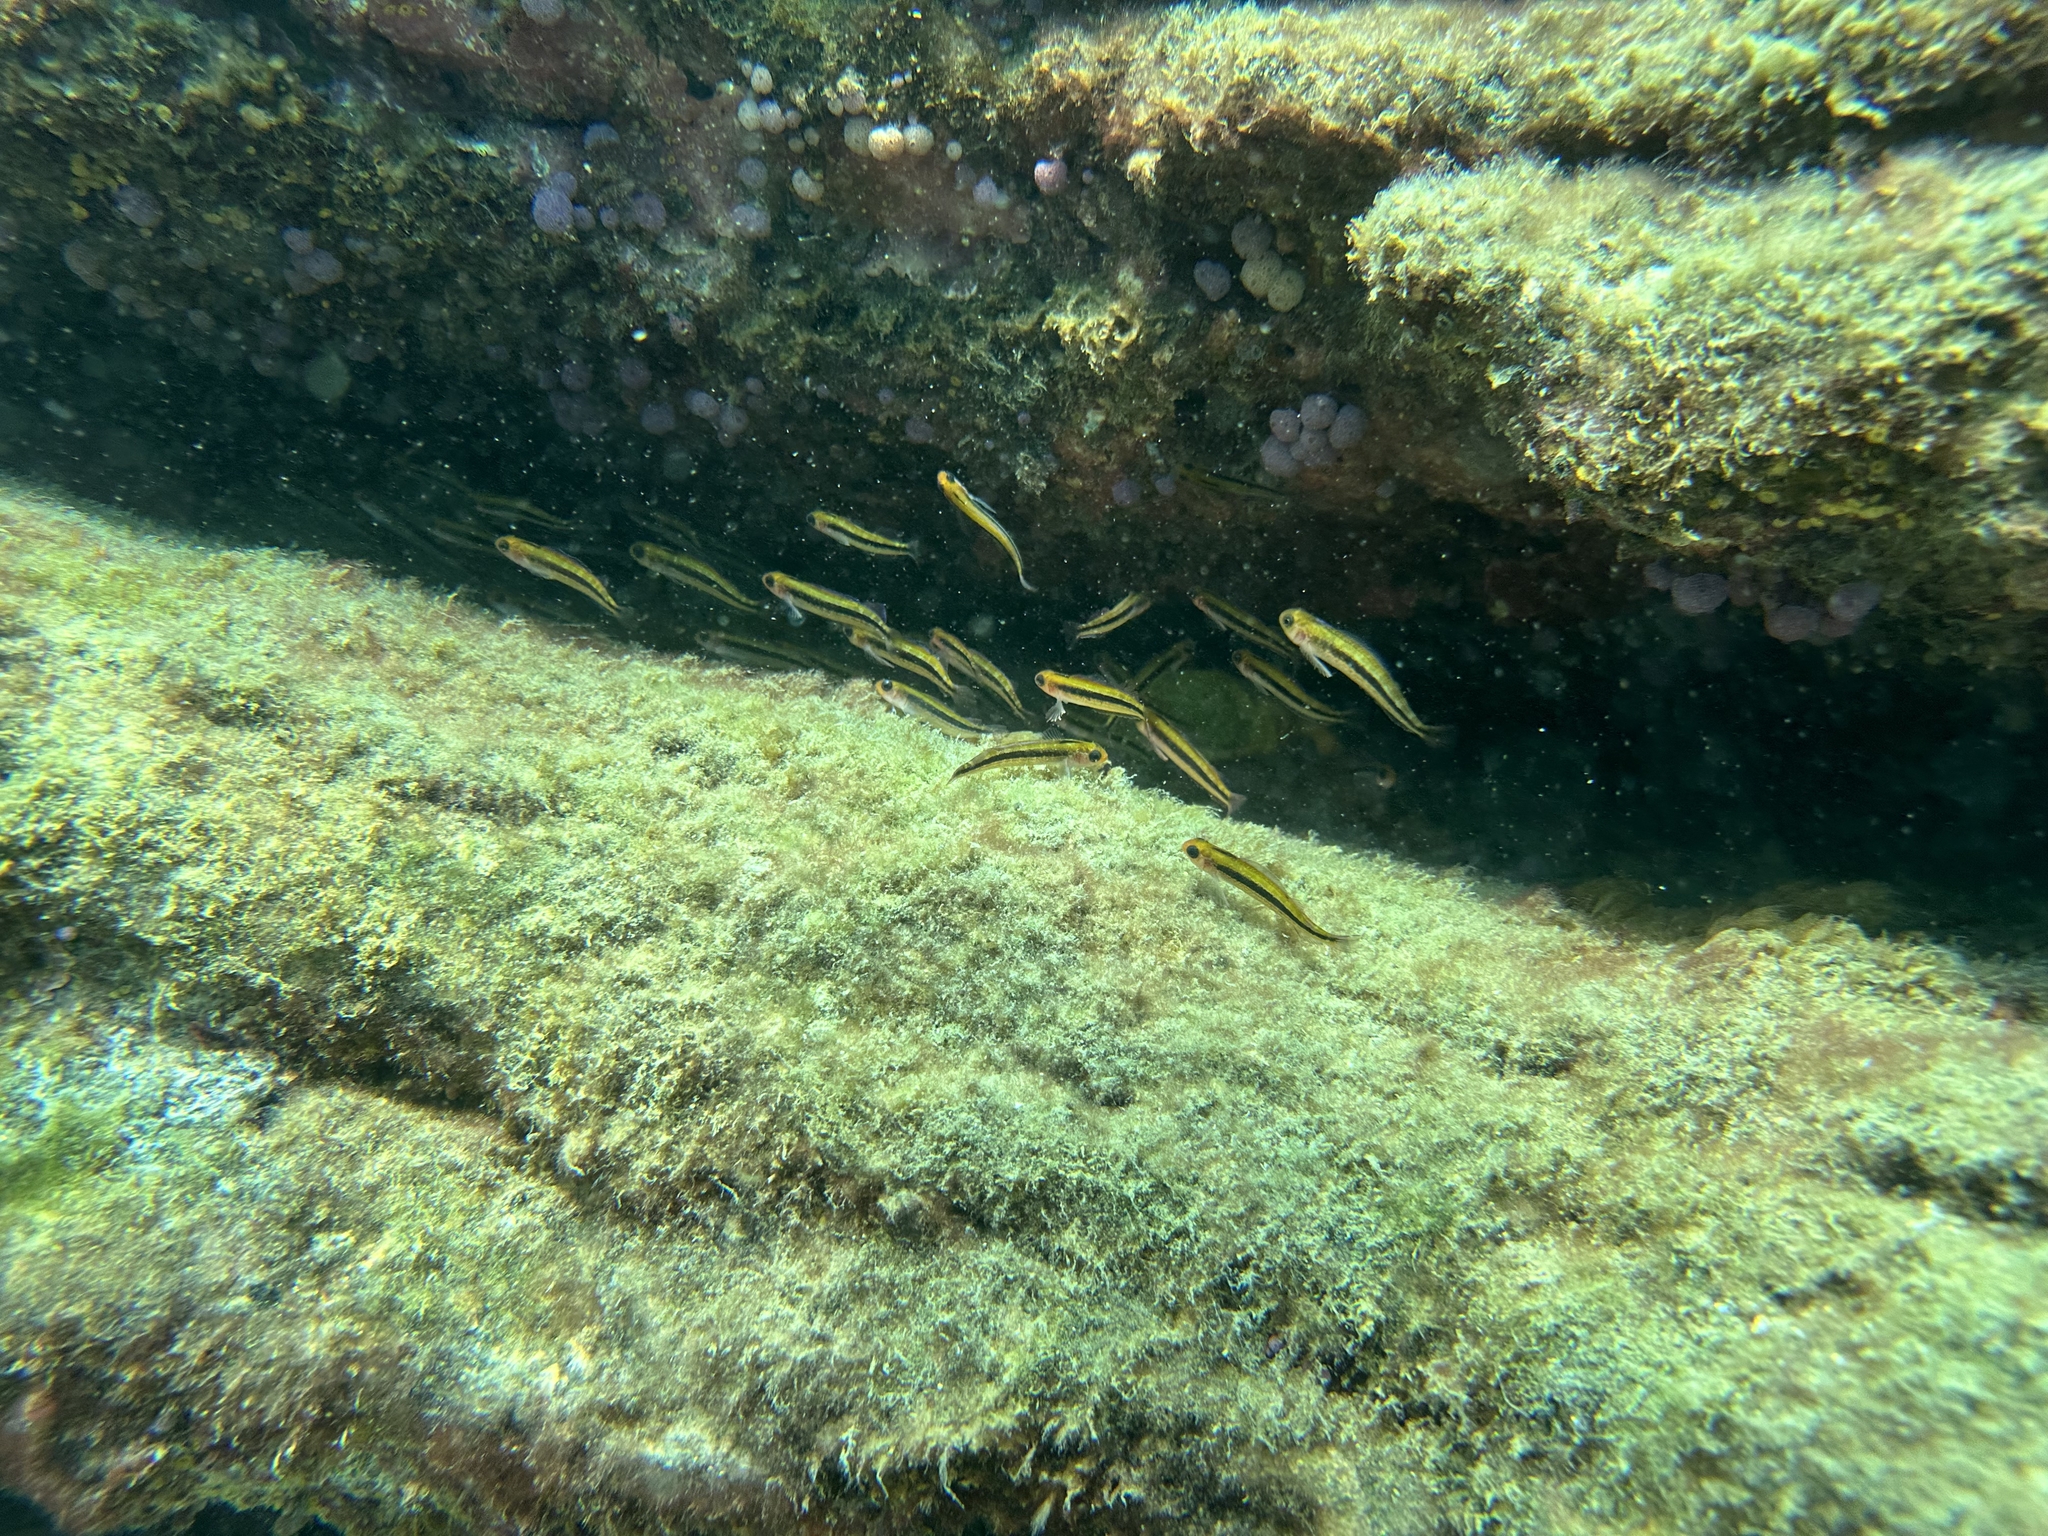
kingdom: Animalia
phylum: Chordata
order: Perciformes
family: Tripterygiidae
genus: Forsterygion
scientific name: Forsterygion maryannae
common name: Oblique-swimming triplefin
